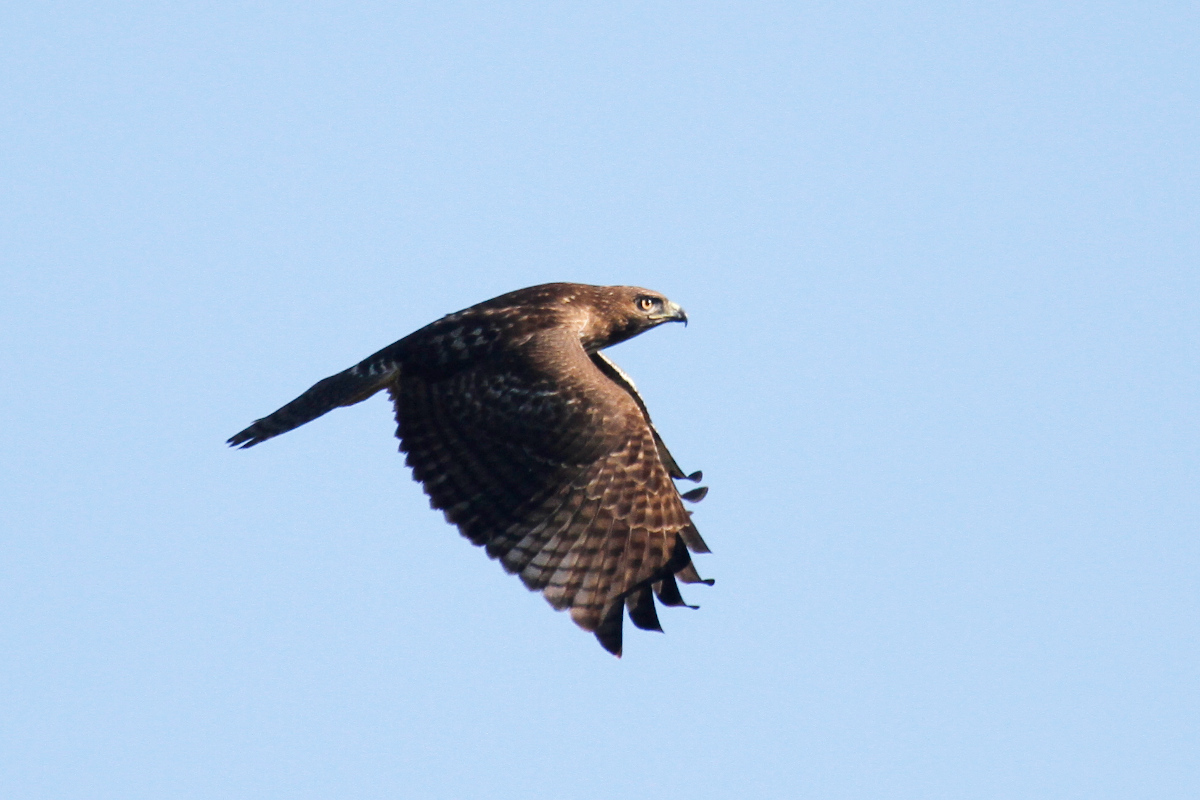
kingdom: Animalia
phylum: Chordata
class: Aves
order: Accipitriformes
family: Accipitridae
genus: Buteo
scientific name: Buteo jamaicensis
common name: Red-tailed hawk
